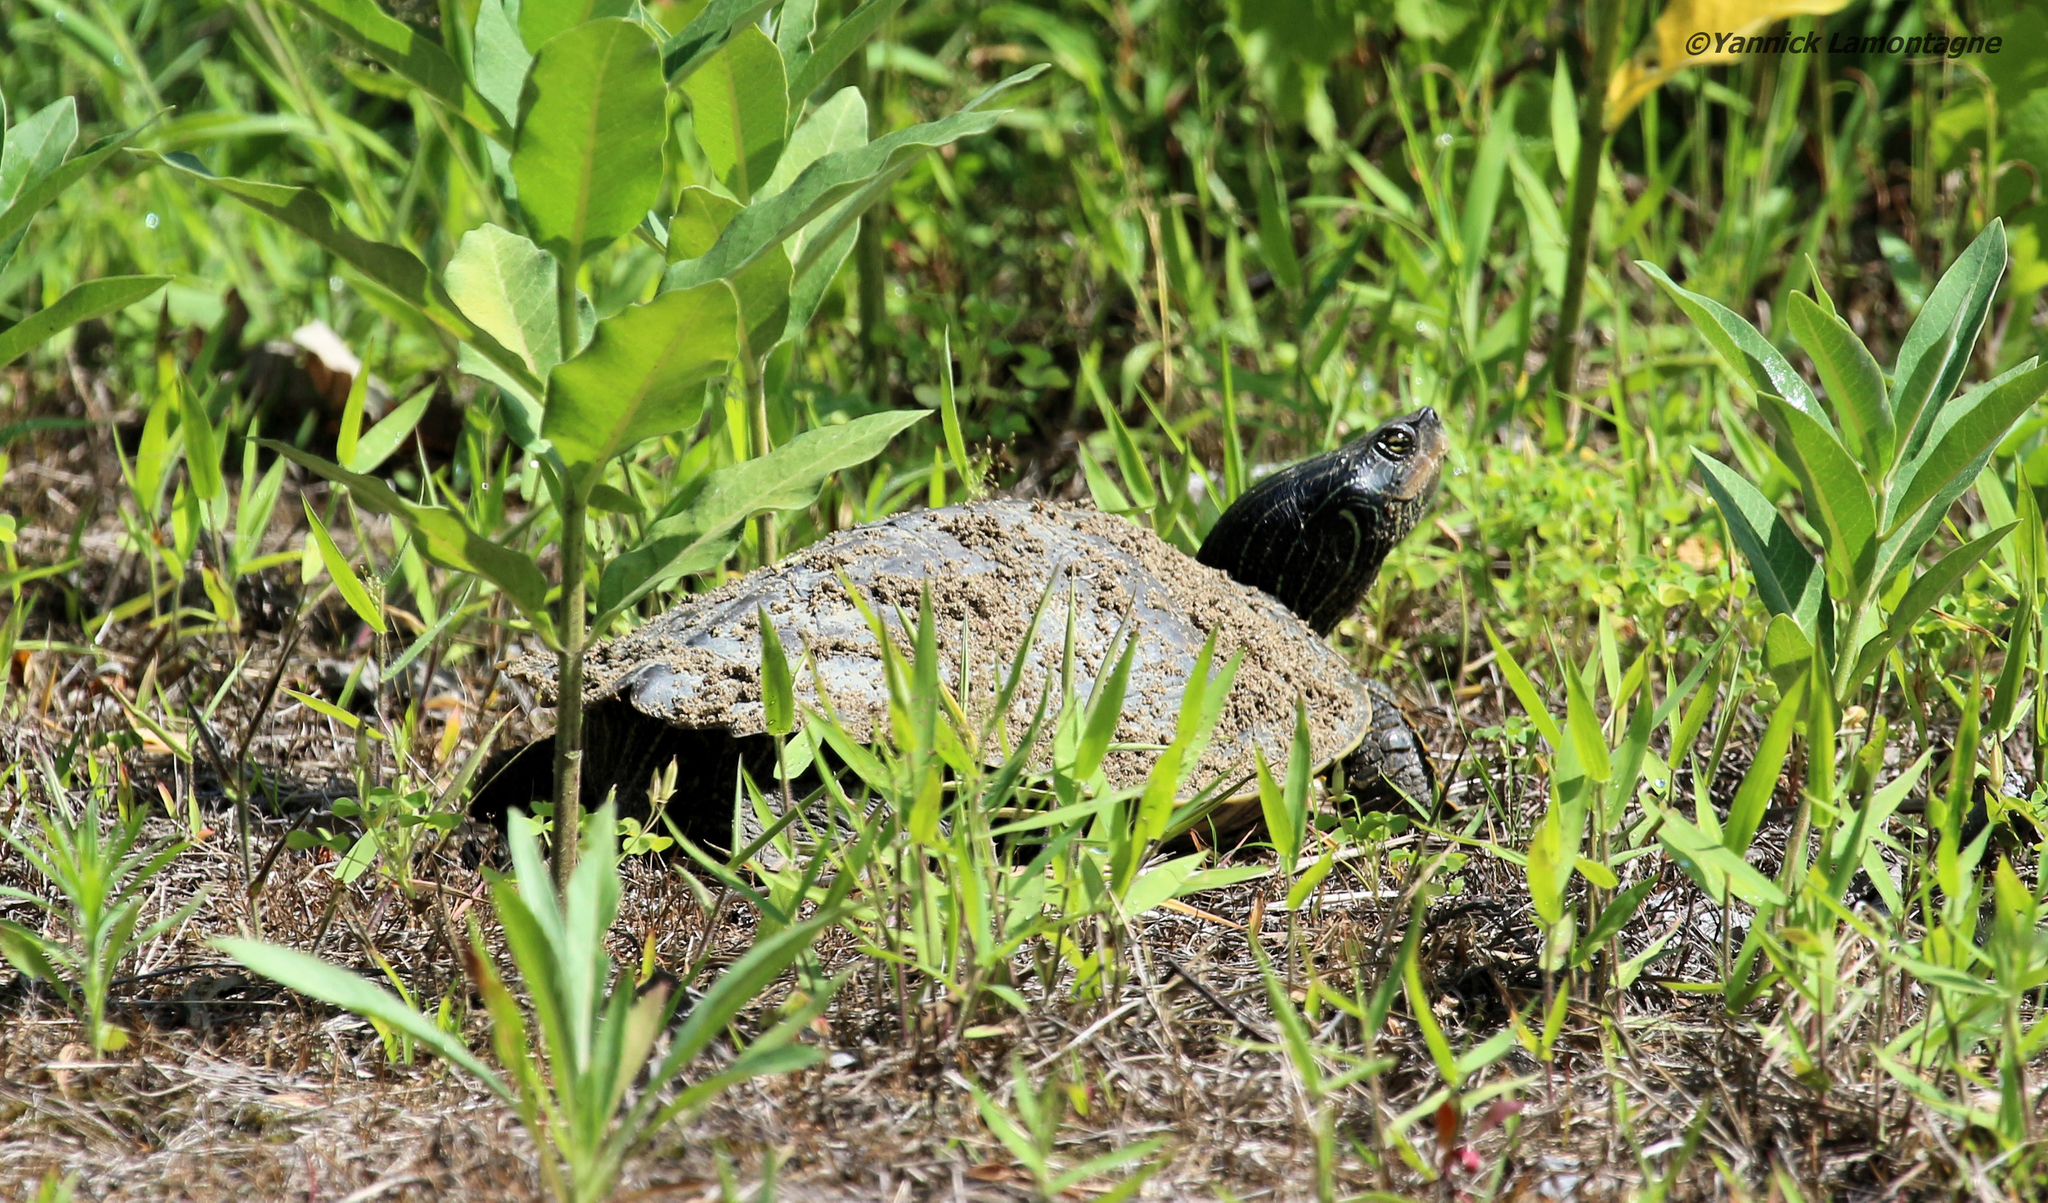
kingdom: Animalia
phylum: Chordata
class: Testudines
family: Emydidae
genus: Graptemys
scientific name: Graptemys geographica
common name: Common map turtle
